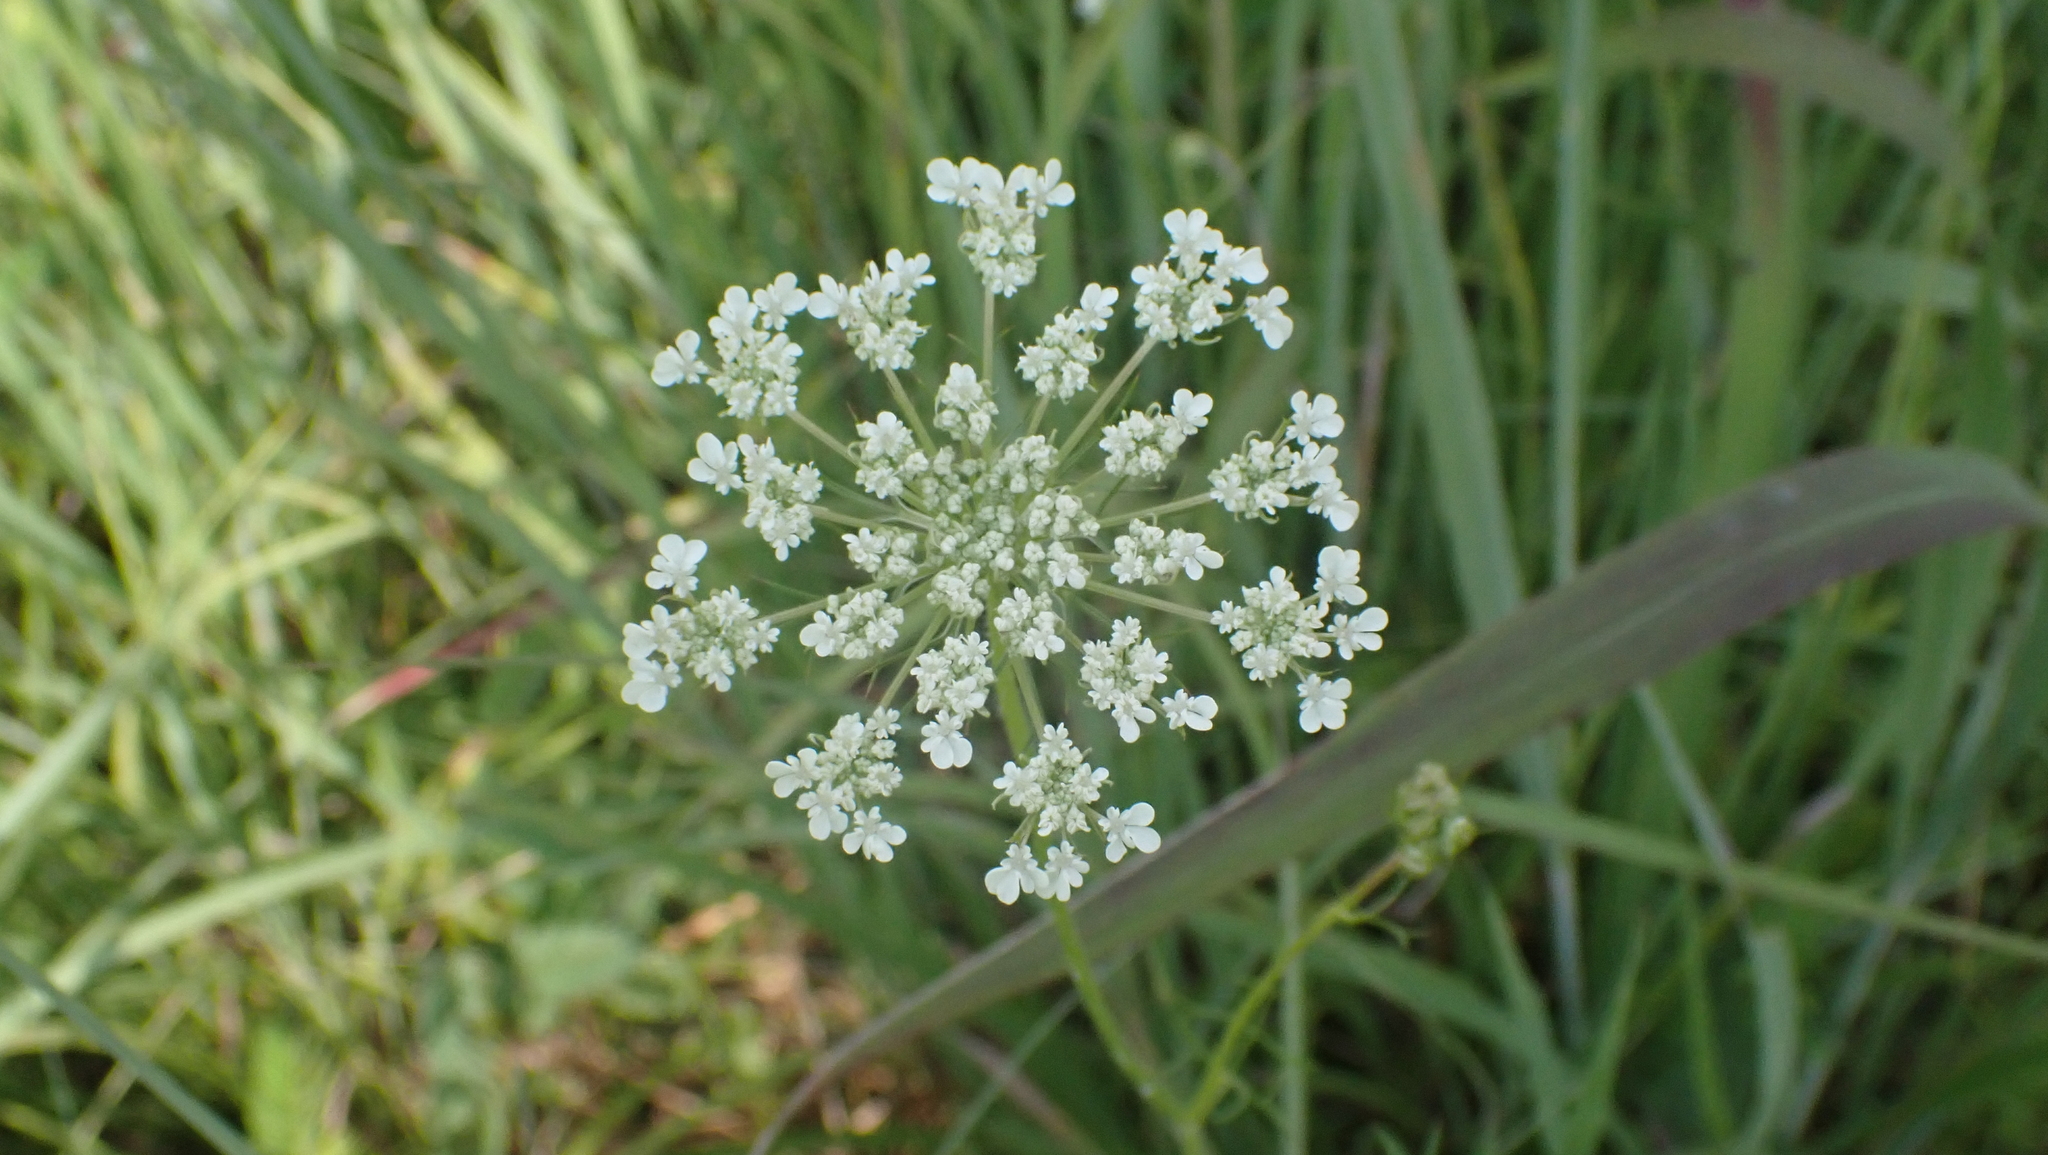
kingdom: Plantae
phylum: Tracheophyta
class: Magnoliopsida
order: Apiales
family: Apiaceae
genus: Daucus
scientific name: Daucus carota
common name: Wild carrot
